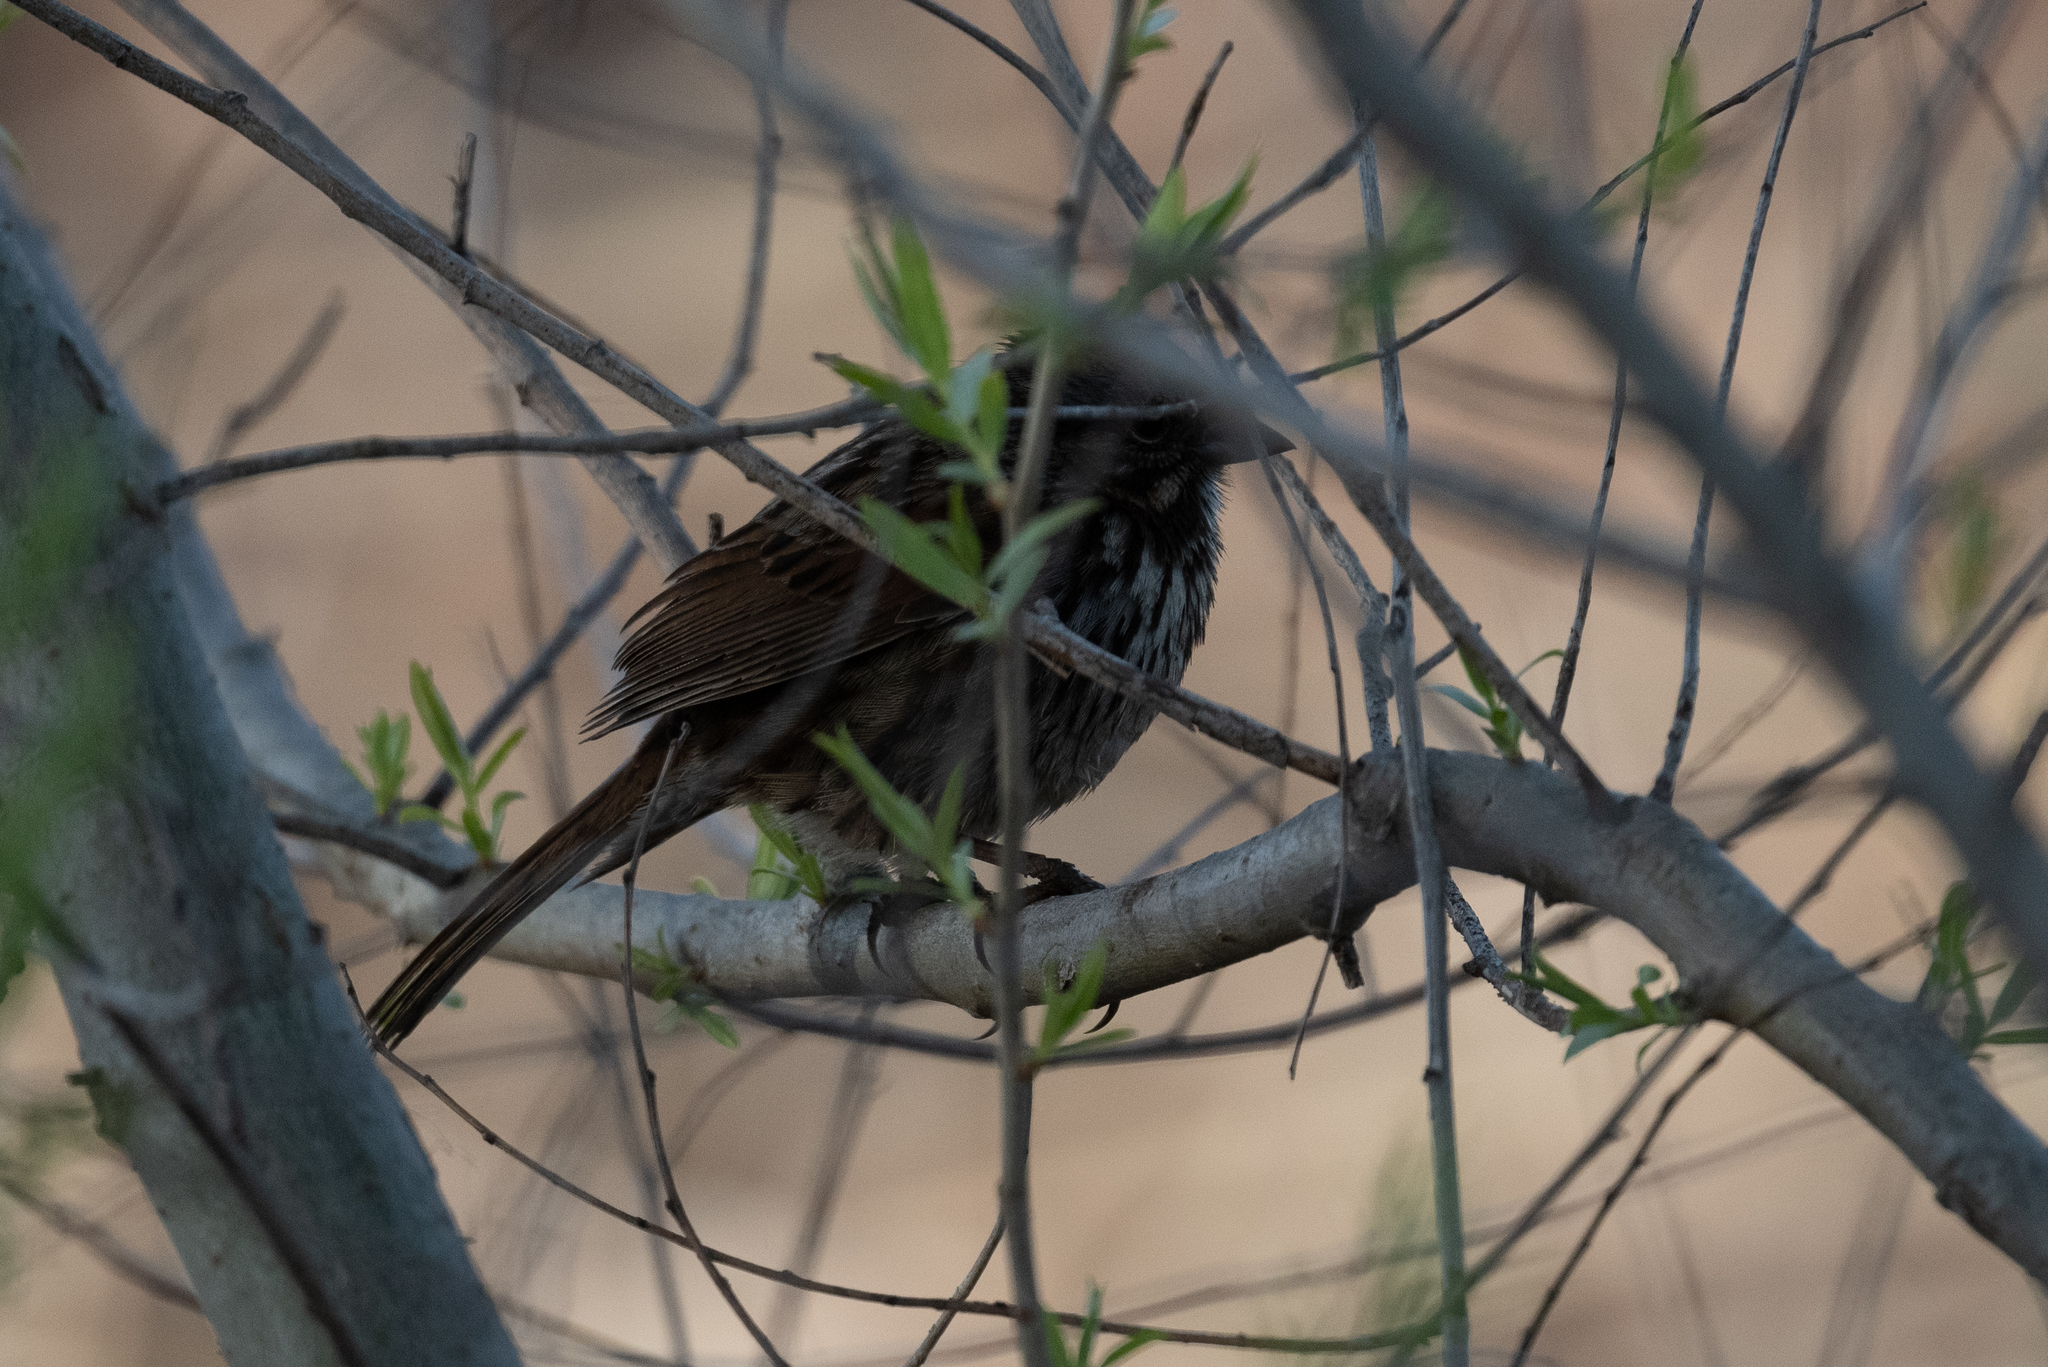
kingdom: Animalia
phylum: Chordata
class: Aves
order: Passeriformes
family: Passerellidae
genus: Melospiza
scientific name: Melospiza melodia
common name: Song sparrow
